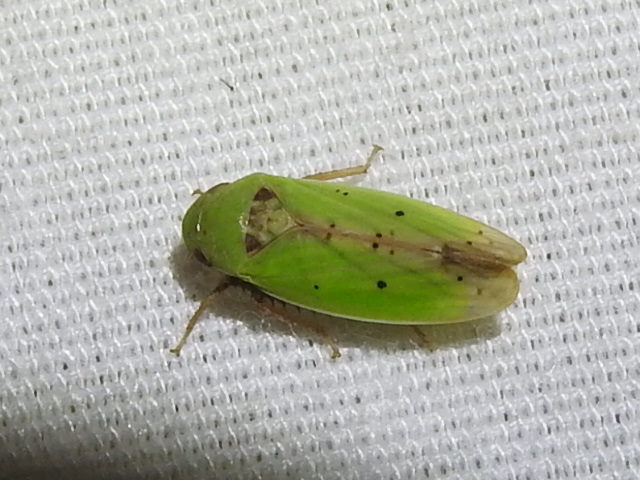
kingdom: Animalia
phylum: Arthropoda
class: Insecta
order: Hemiptera
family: Cicadellidae
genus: Ponana
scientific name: Ponana
